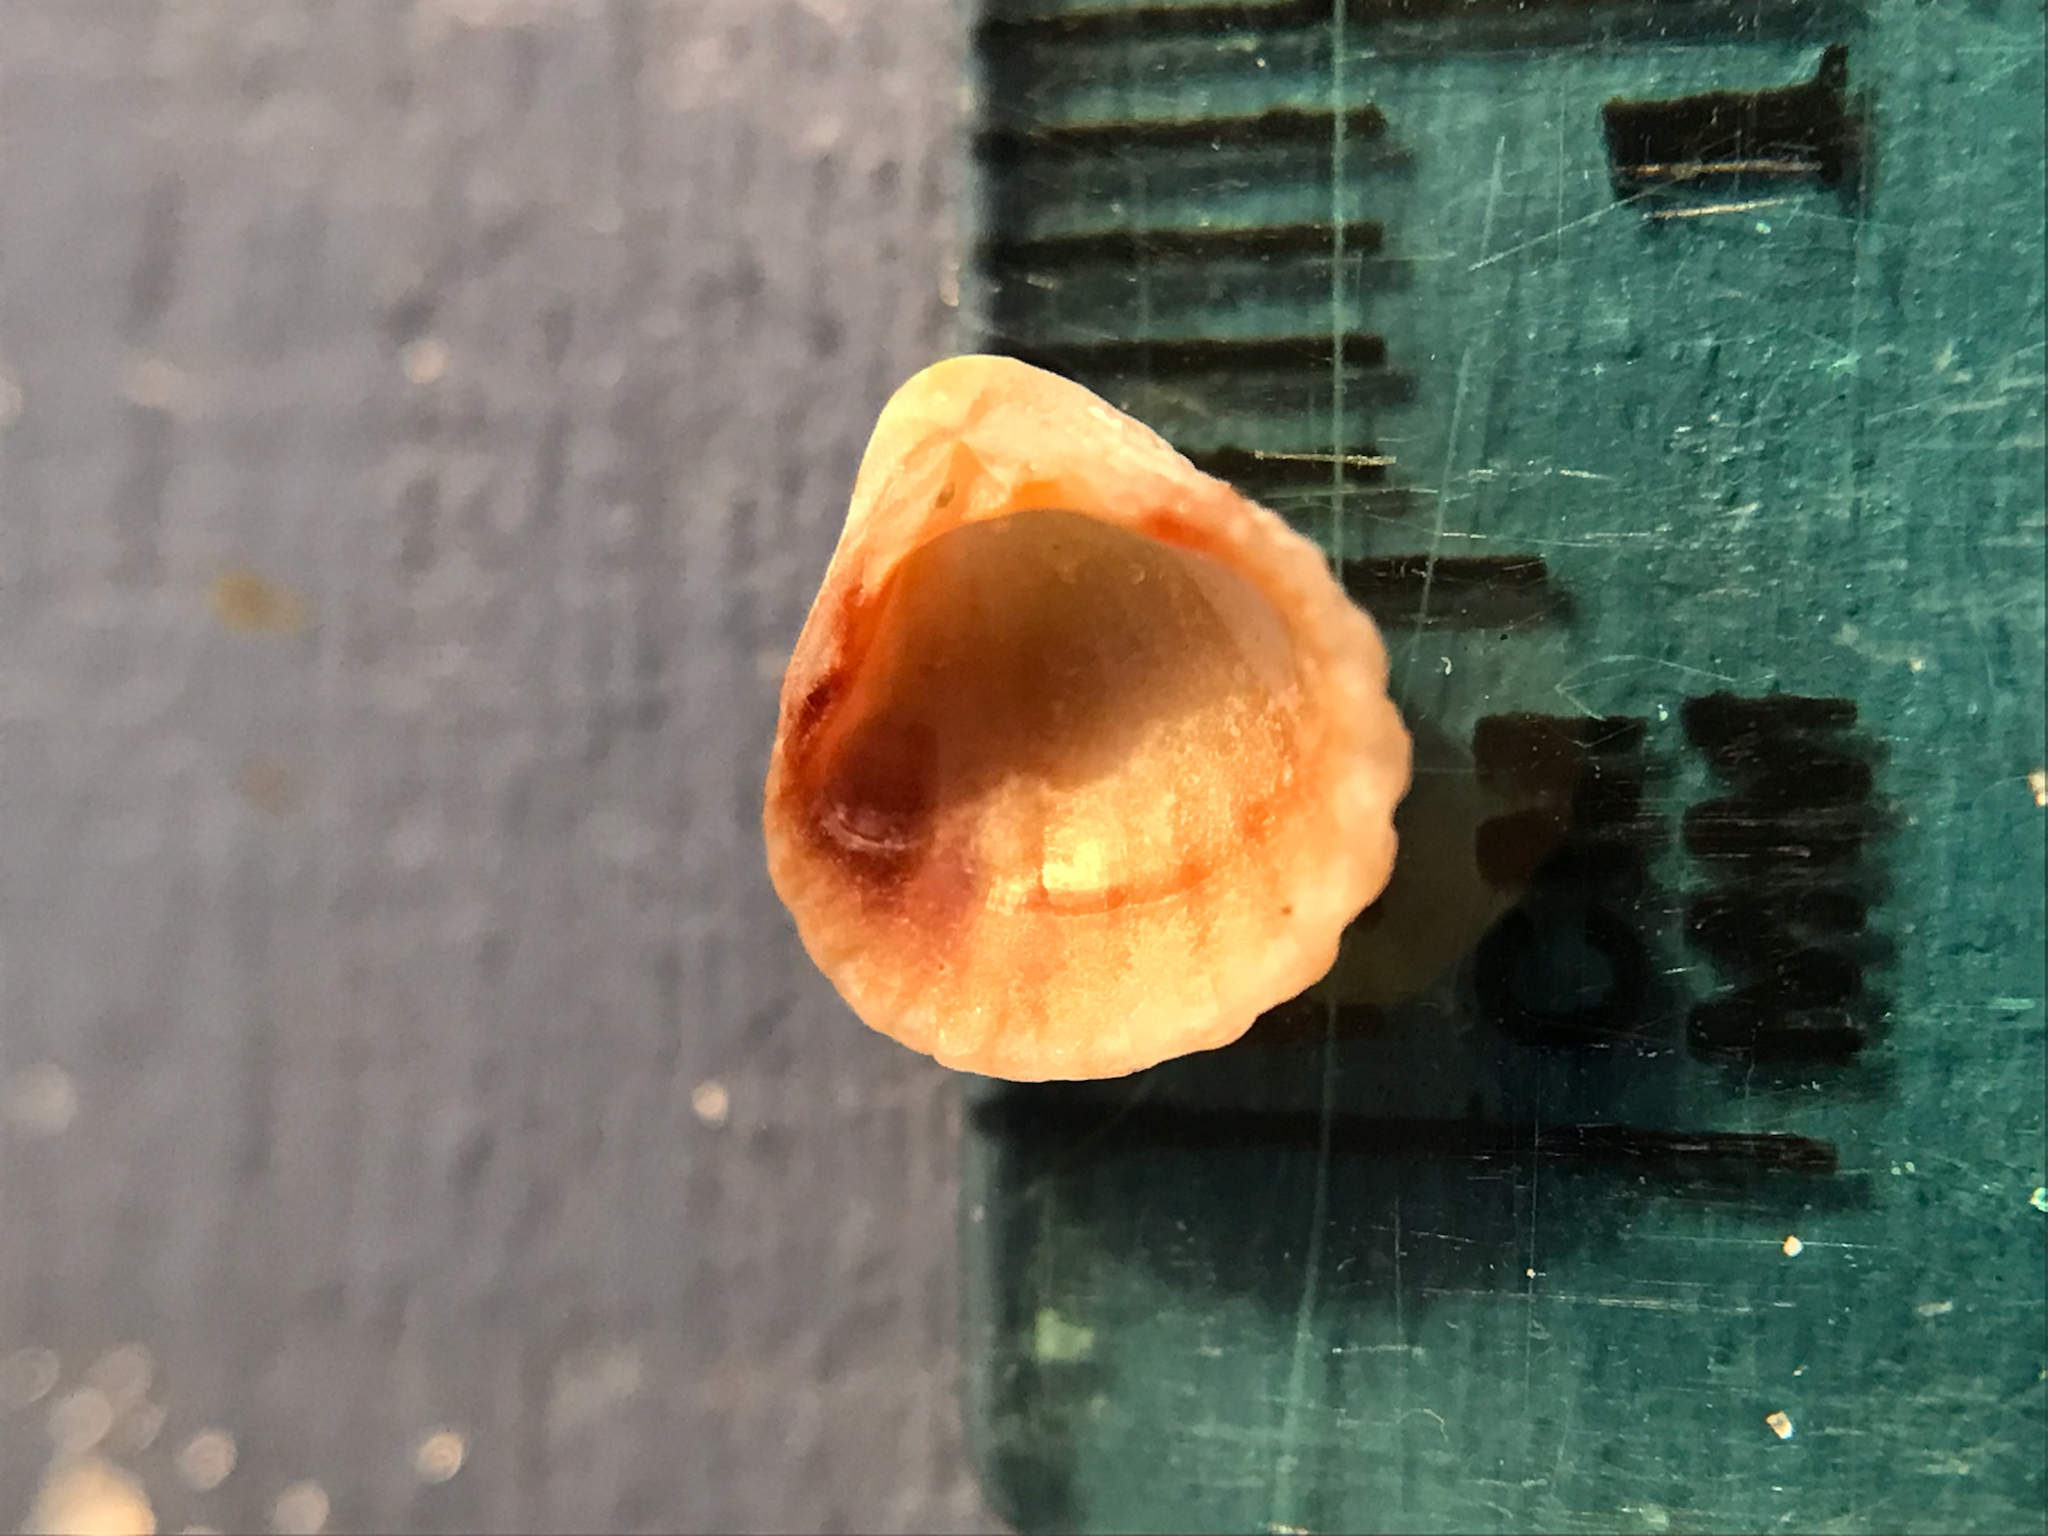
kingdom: Animalia
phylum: Mollusca
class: Bivalvia
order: Carditida
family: Carditidae
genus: Pleuromeris
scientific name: Pleuromeris tridentata
